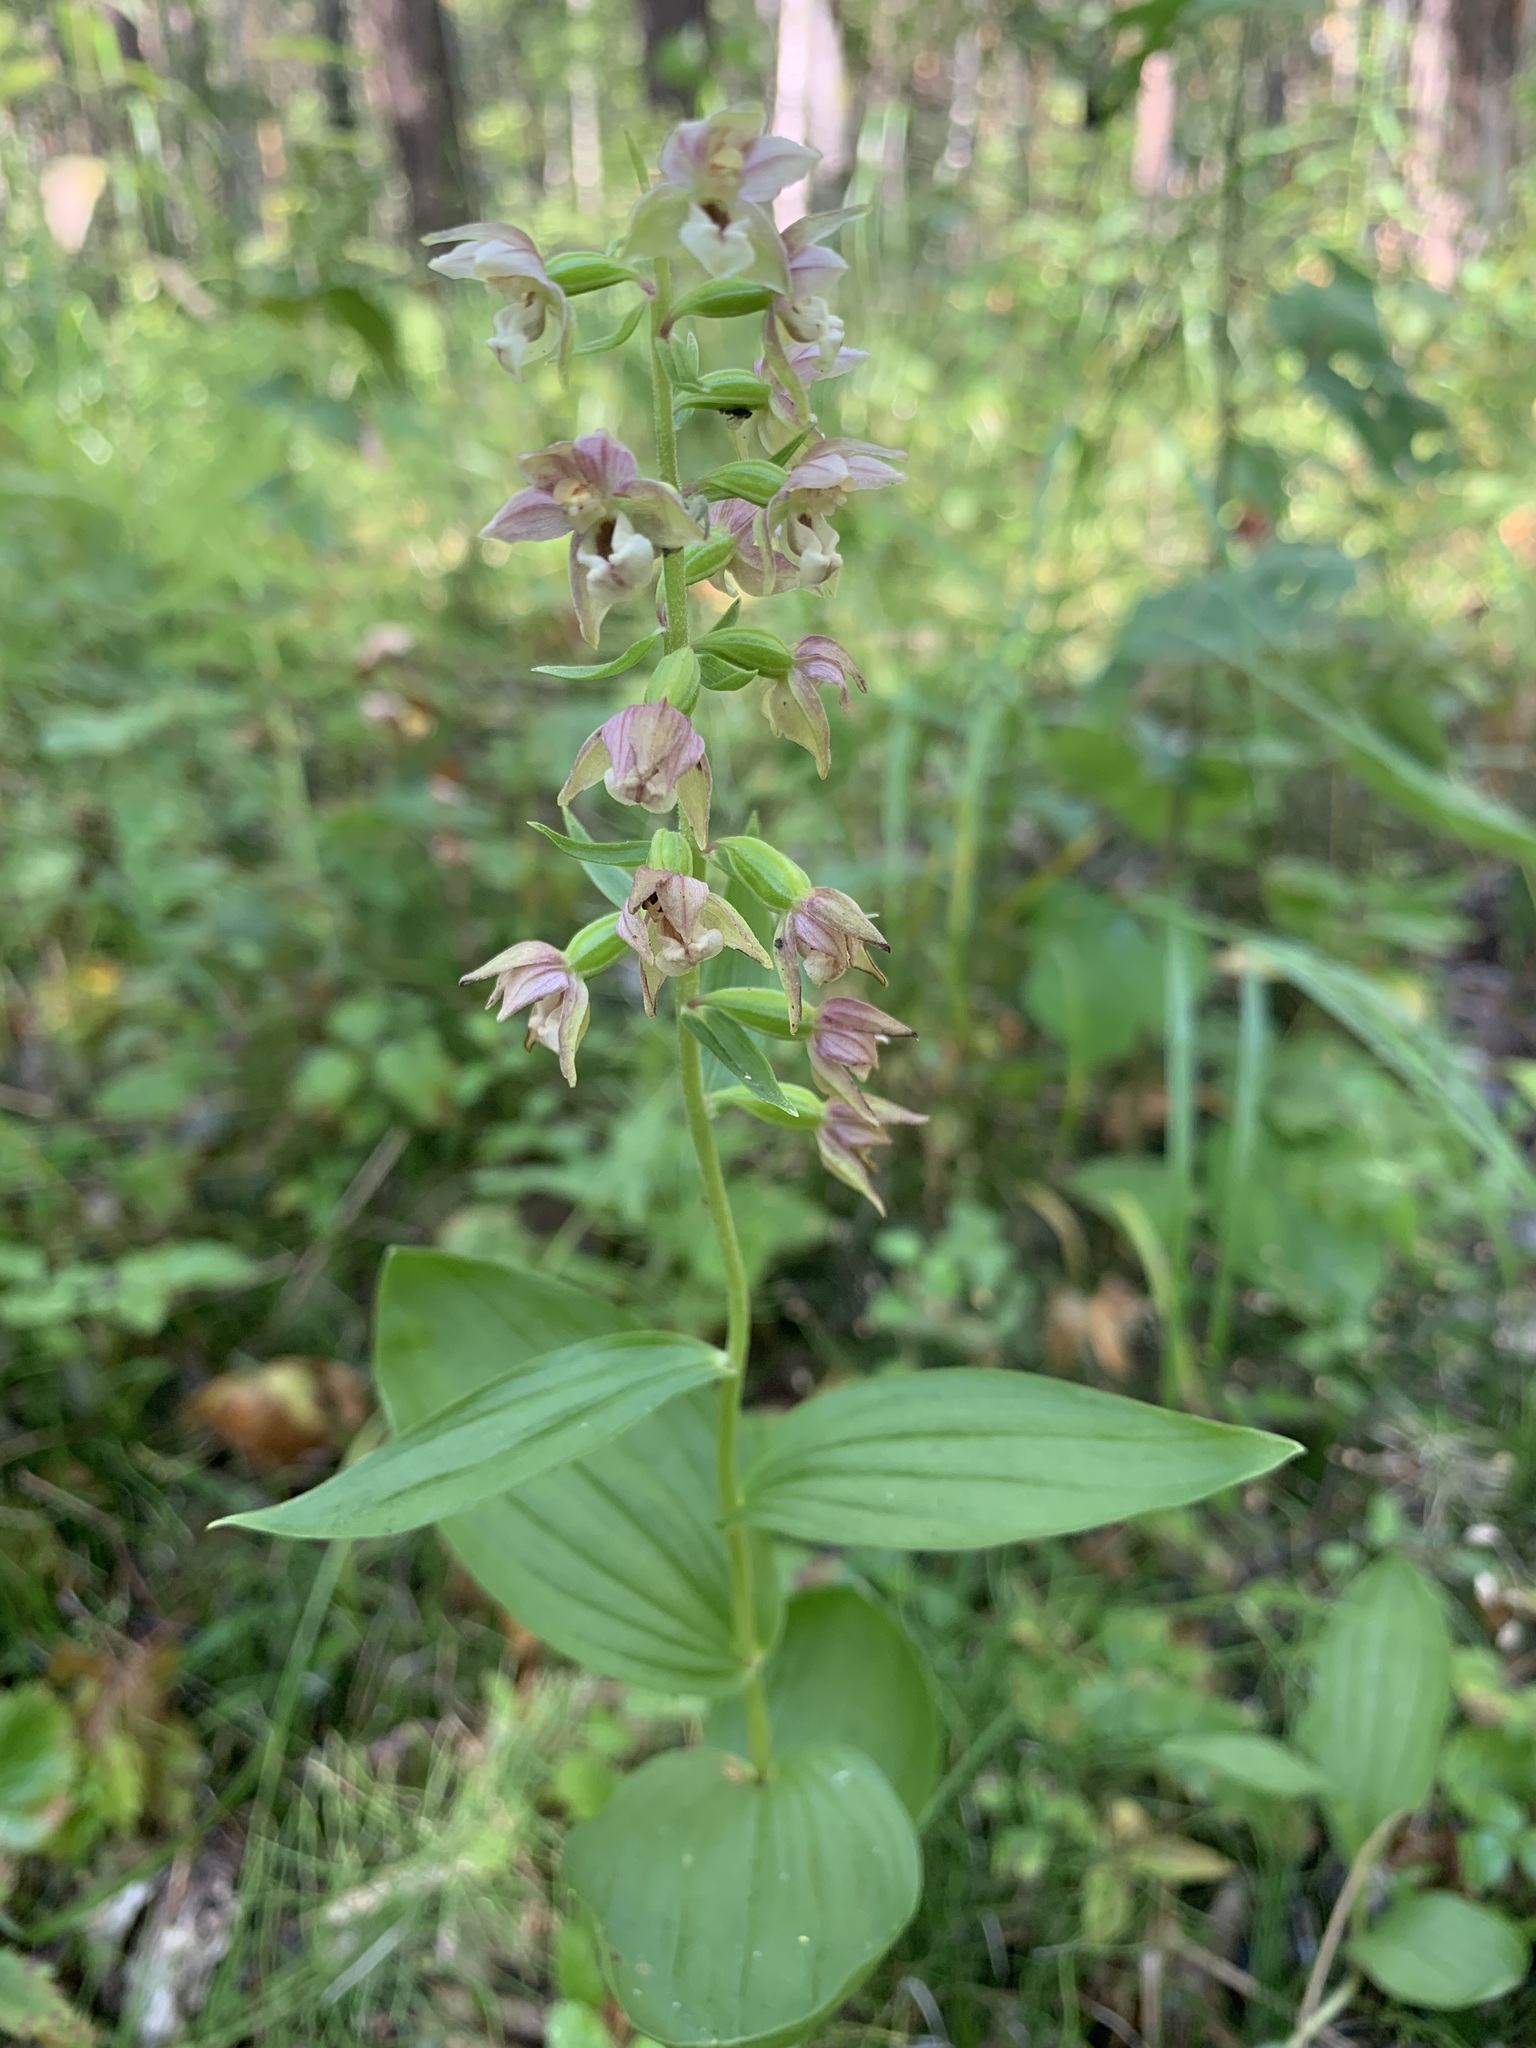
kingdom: Plantae
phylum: Tracheophyta
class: Liliopsida
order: Asparagales
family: Orchidaceae
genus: Epipactis
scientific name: Epipactis helleborine
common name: Broad-leaved helleborine
